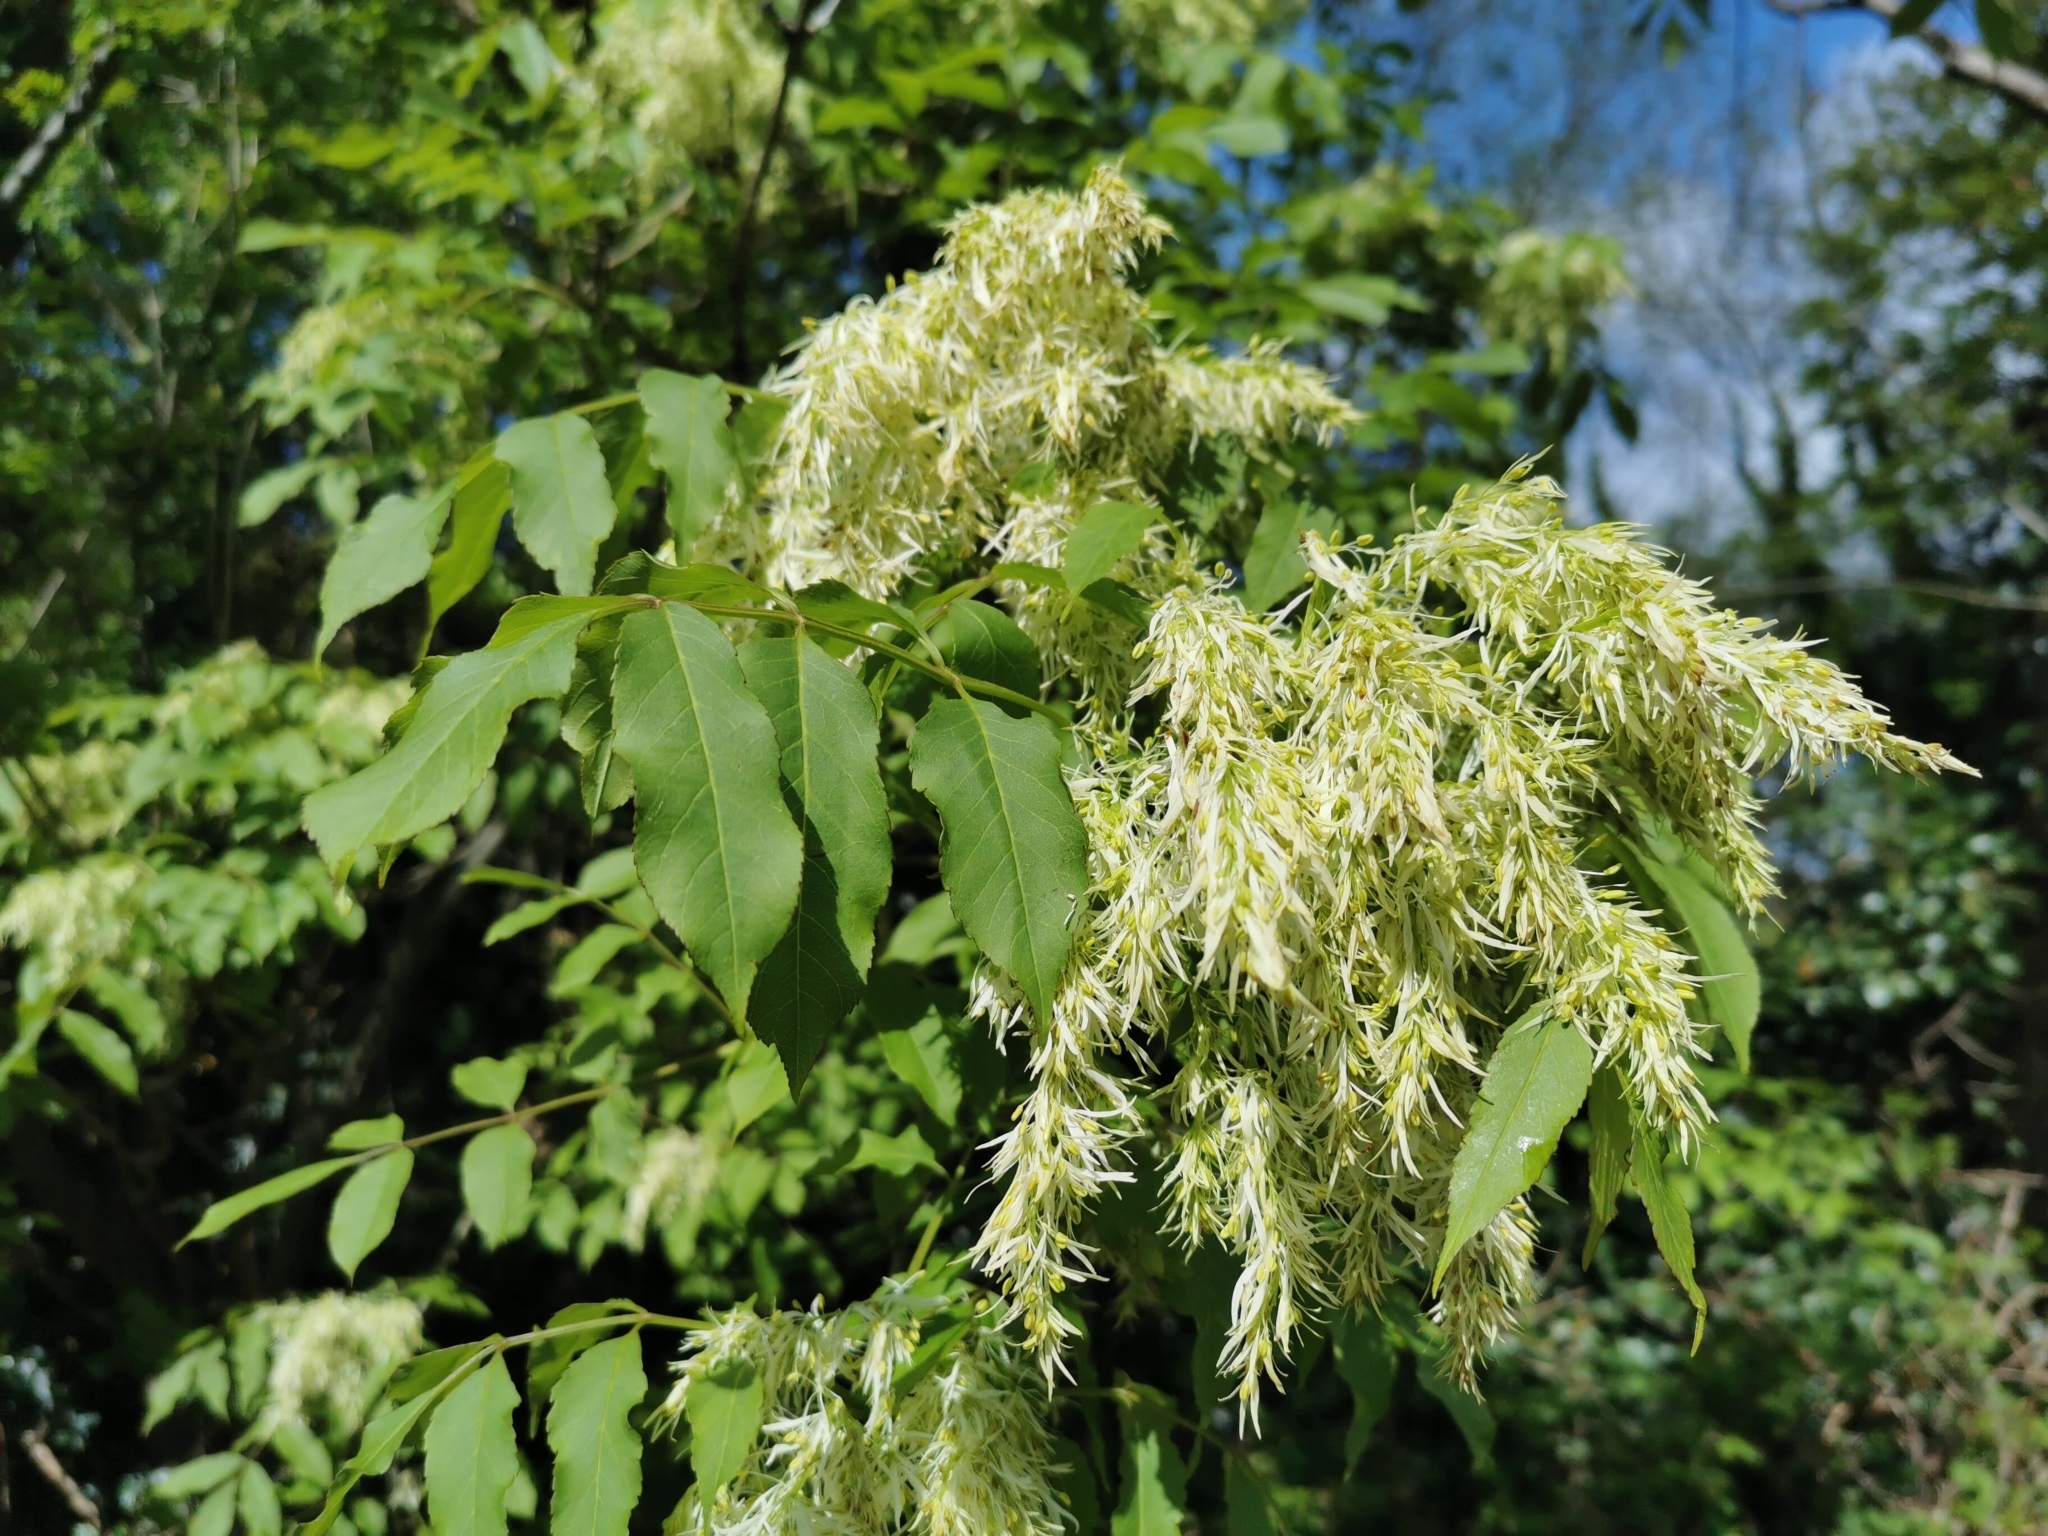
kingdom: Plantae
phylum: Tracheophyta
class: Magnoliopsida
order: Lamiales
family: Oleaceae
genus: Fraxinus
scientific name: Fraxinus ornus
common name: Manna ash
